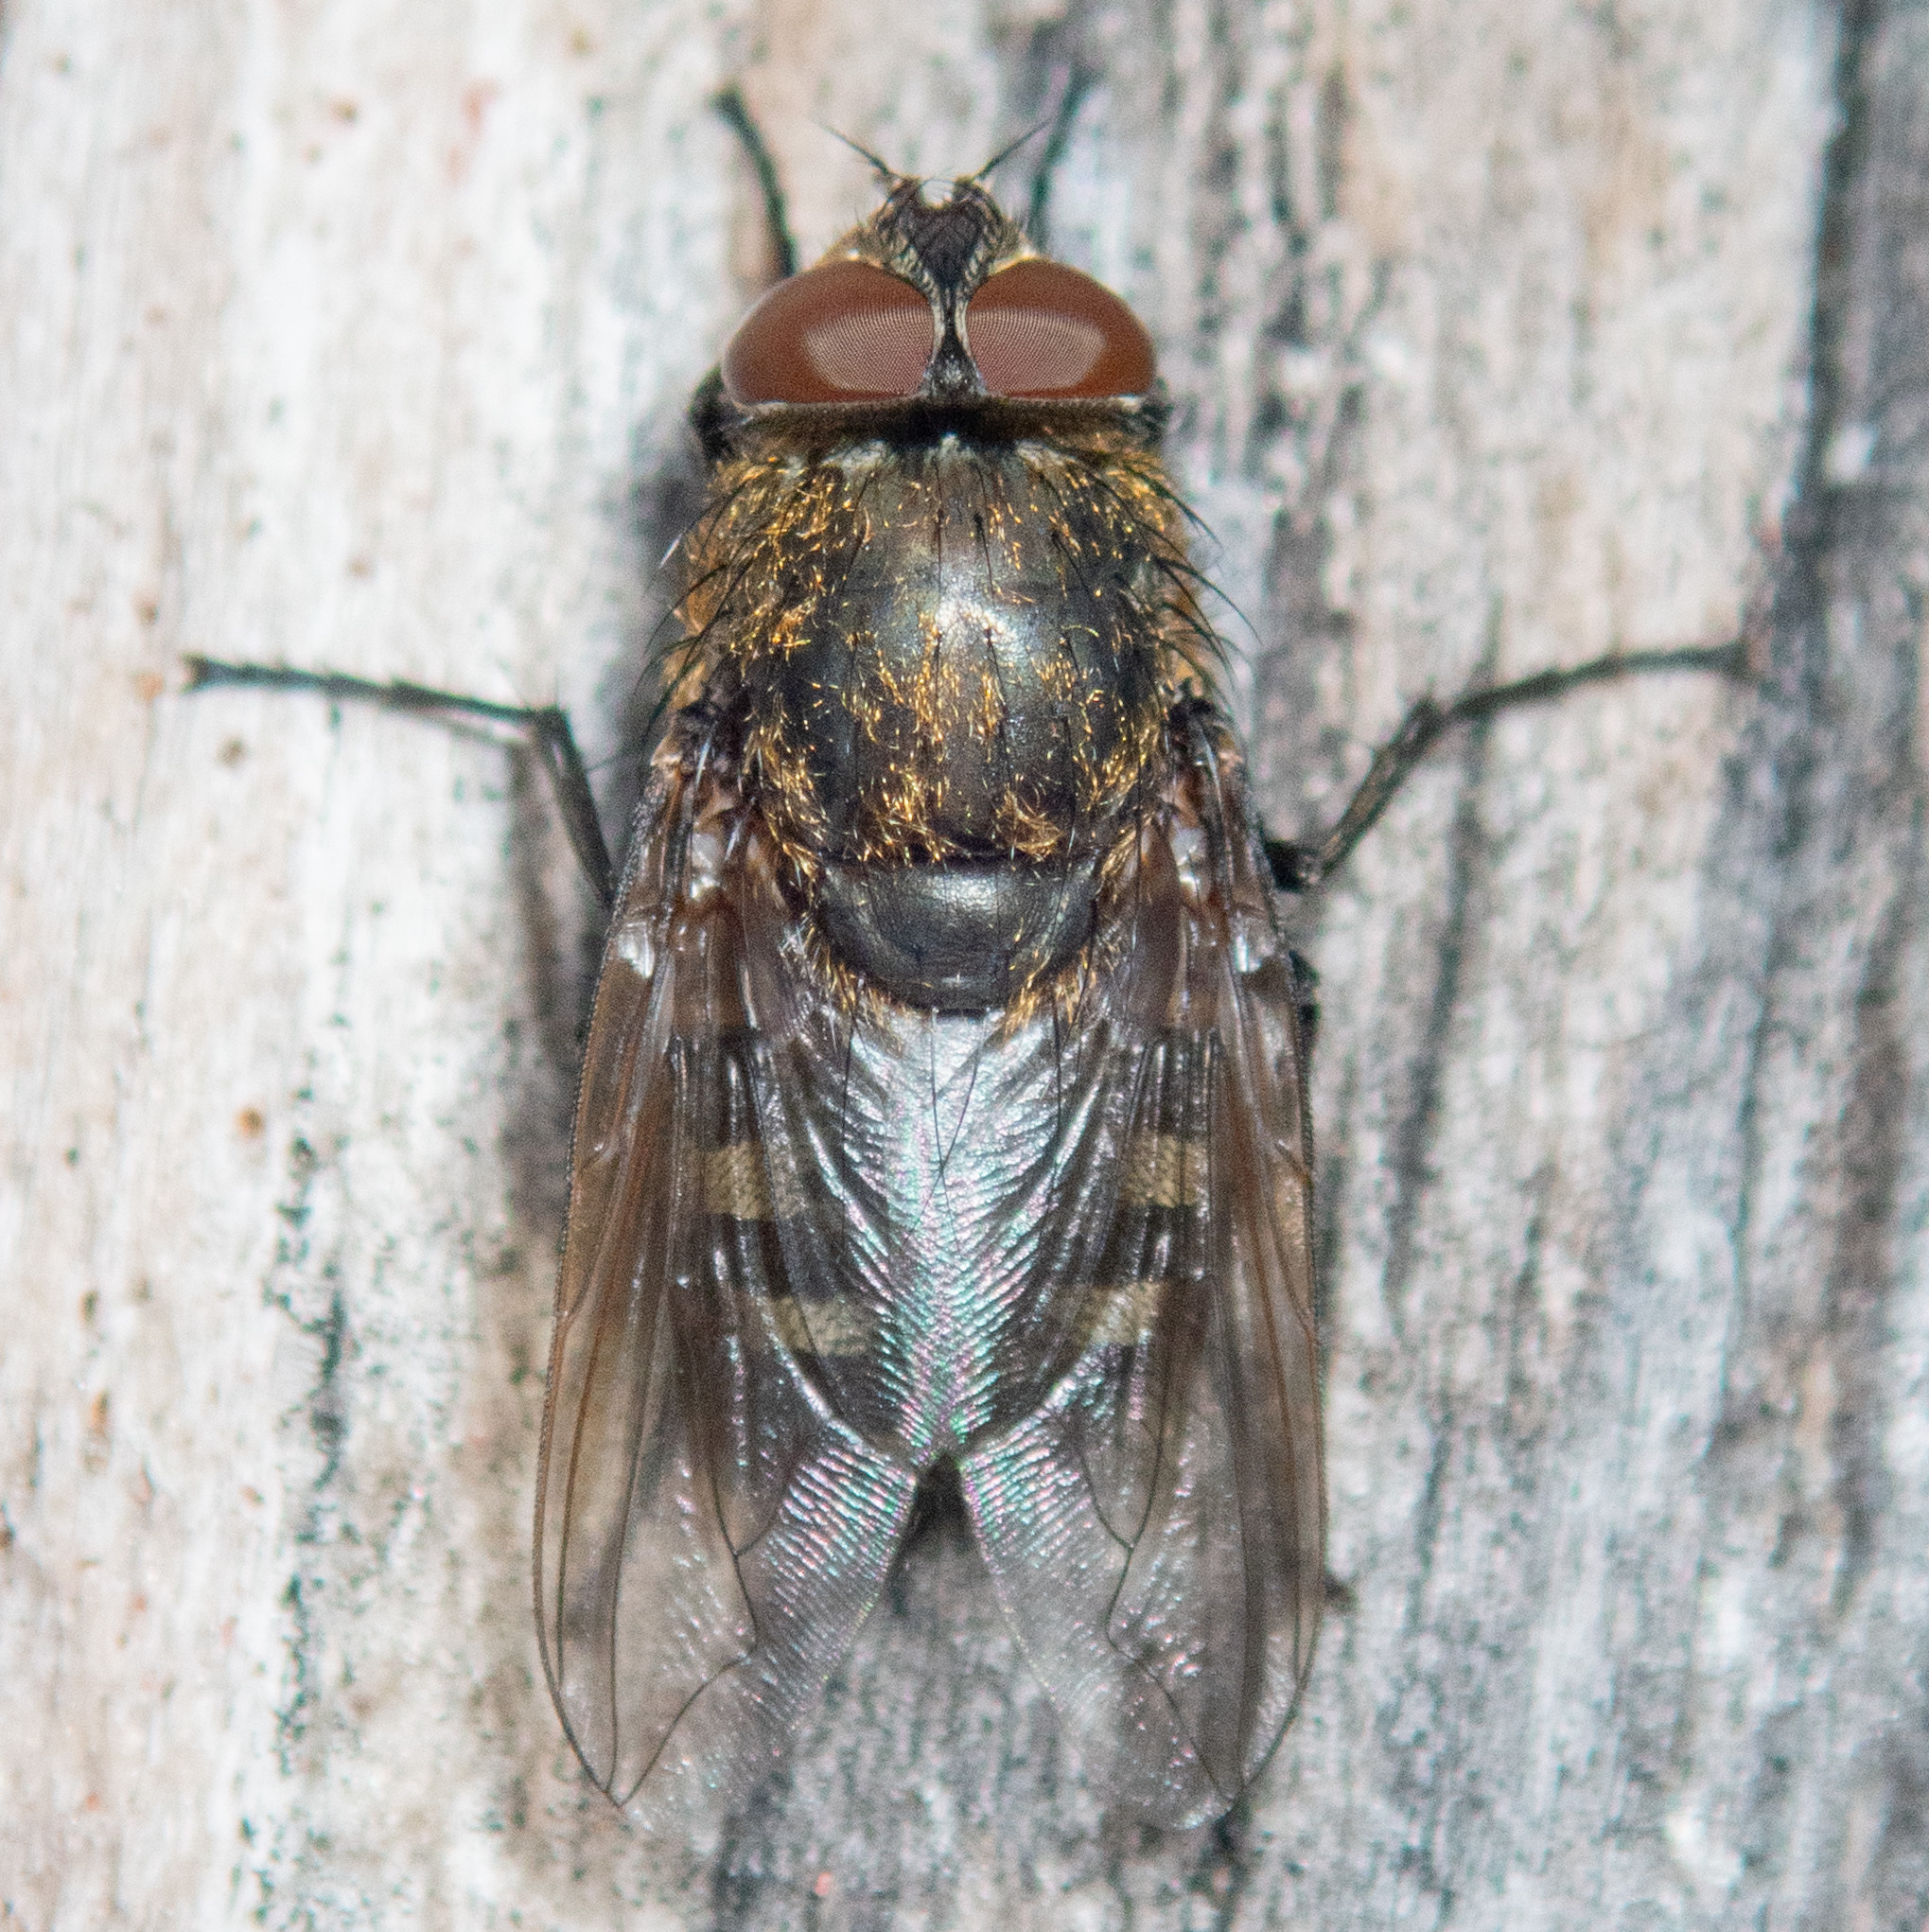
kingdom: Animalia
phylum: Arthropoda
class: Insecta
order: Diptera
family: Polleniidae
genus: Pollenia
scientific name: Pollenia
